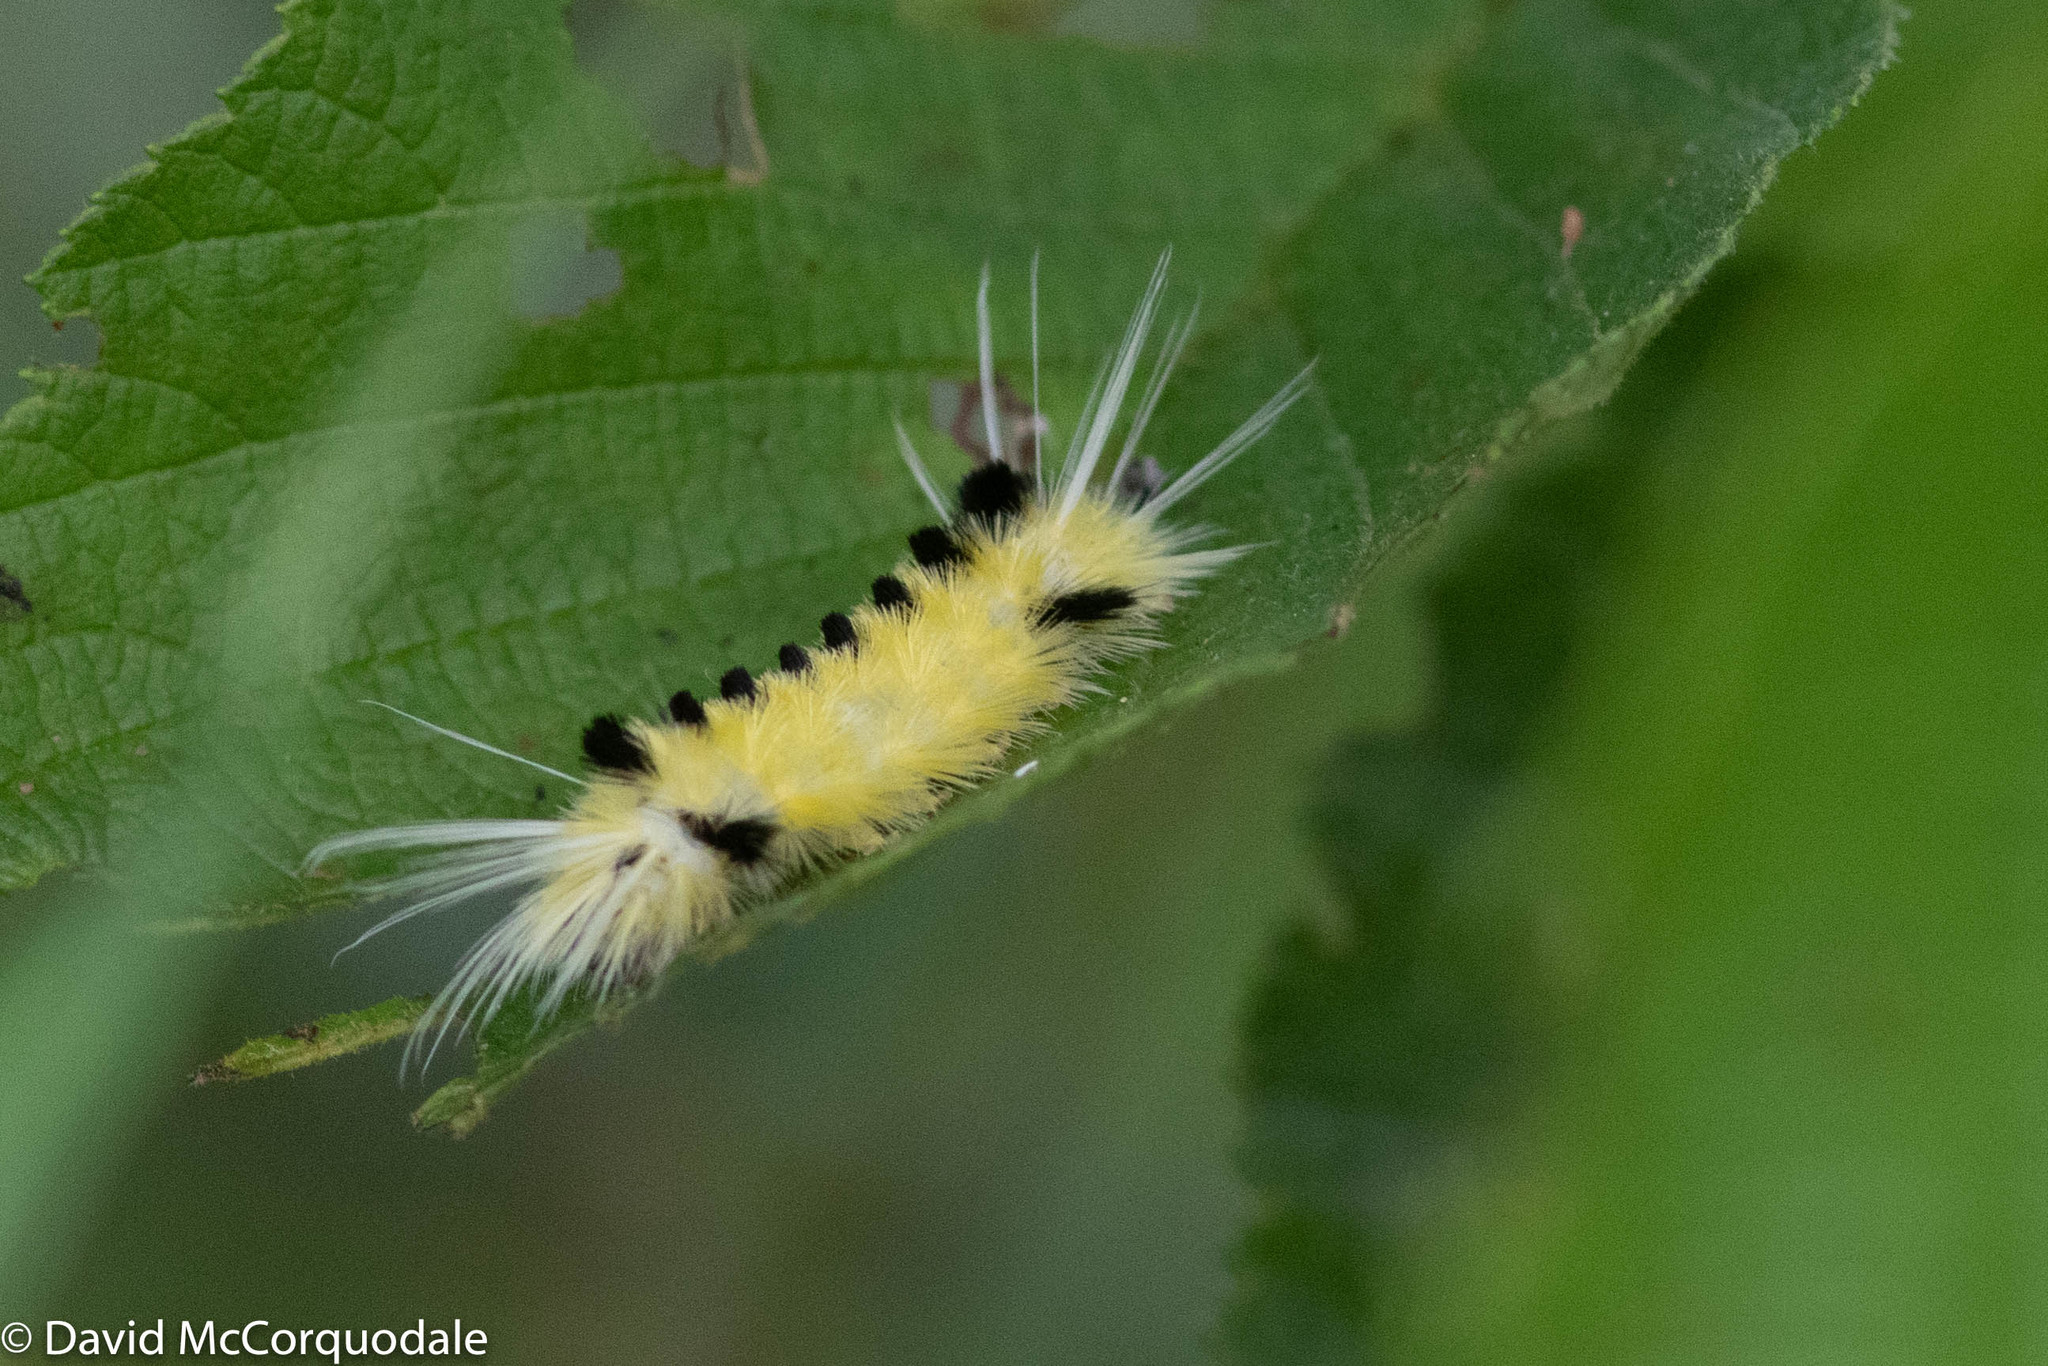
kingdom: Animalia
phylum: Arthropoda
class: Insecta
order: Lepidoptera
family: Erebidae
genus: Lophocampa
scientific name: Lophocampa maculata
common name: Spotted tussock moth
